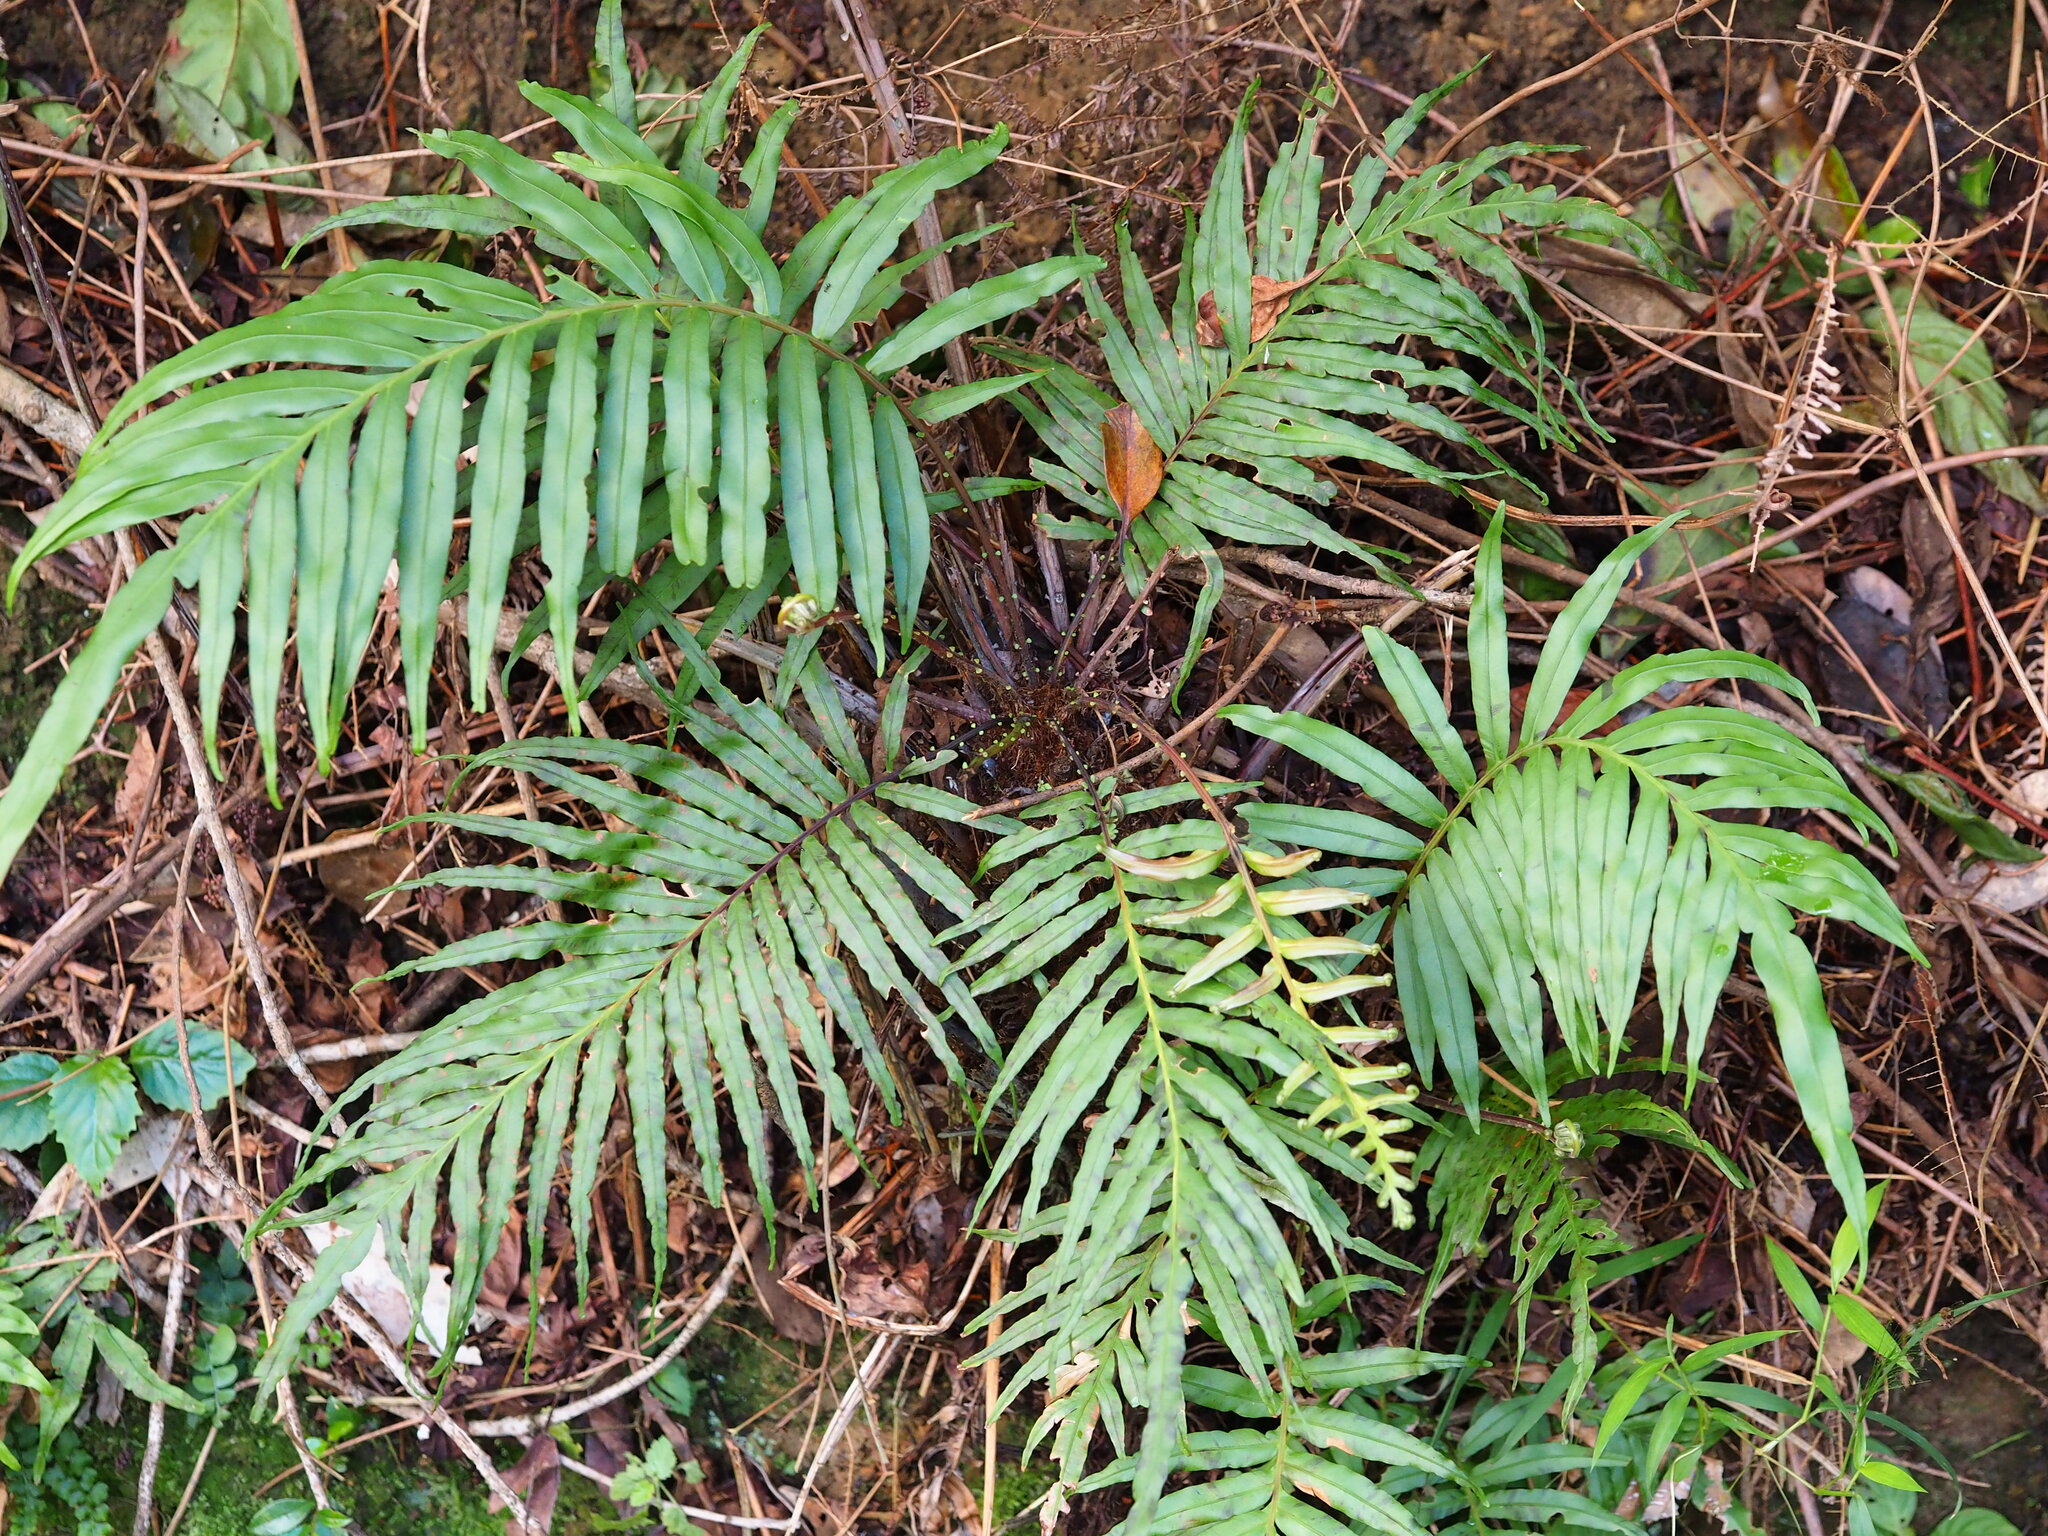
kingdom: Plantae
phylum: Tracheophyta
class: Polypodiopsida
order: Polypodiales
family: Blechnaceae
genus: Blechnopsis
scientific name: Blechnopsis orientalis
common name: Oriental blechnum
